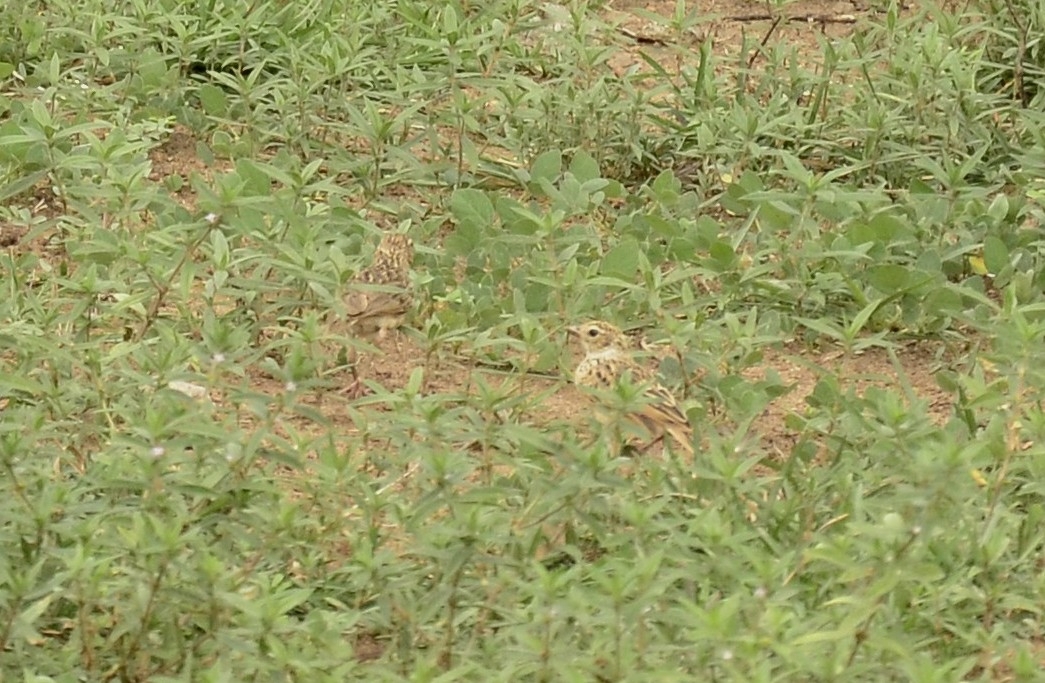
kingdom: Animalia
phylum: Chordata
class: Aves
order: Passeriformes
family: Alaudidae
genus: Mirafra
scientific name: Mirafra affinis
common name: Jerdon's bushlark
